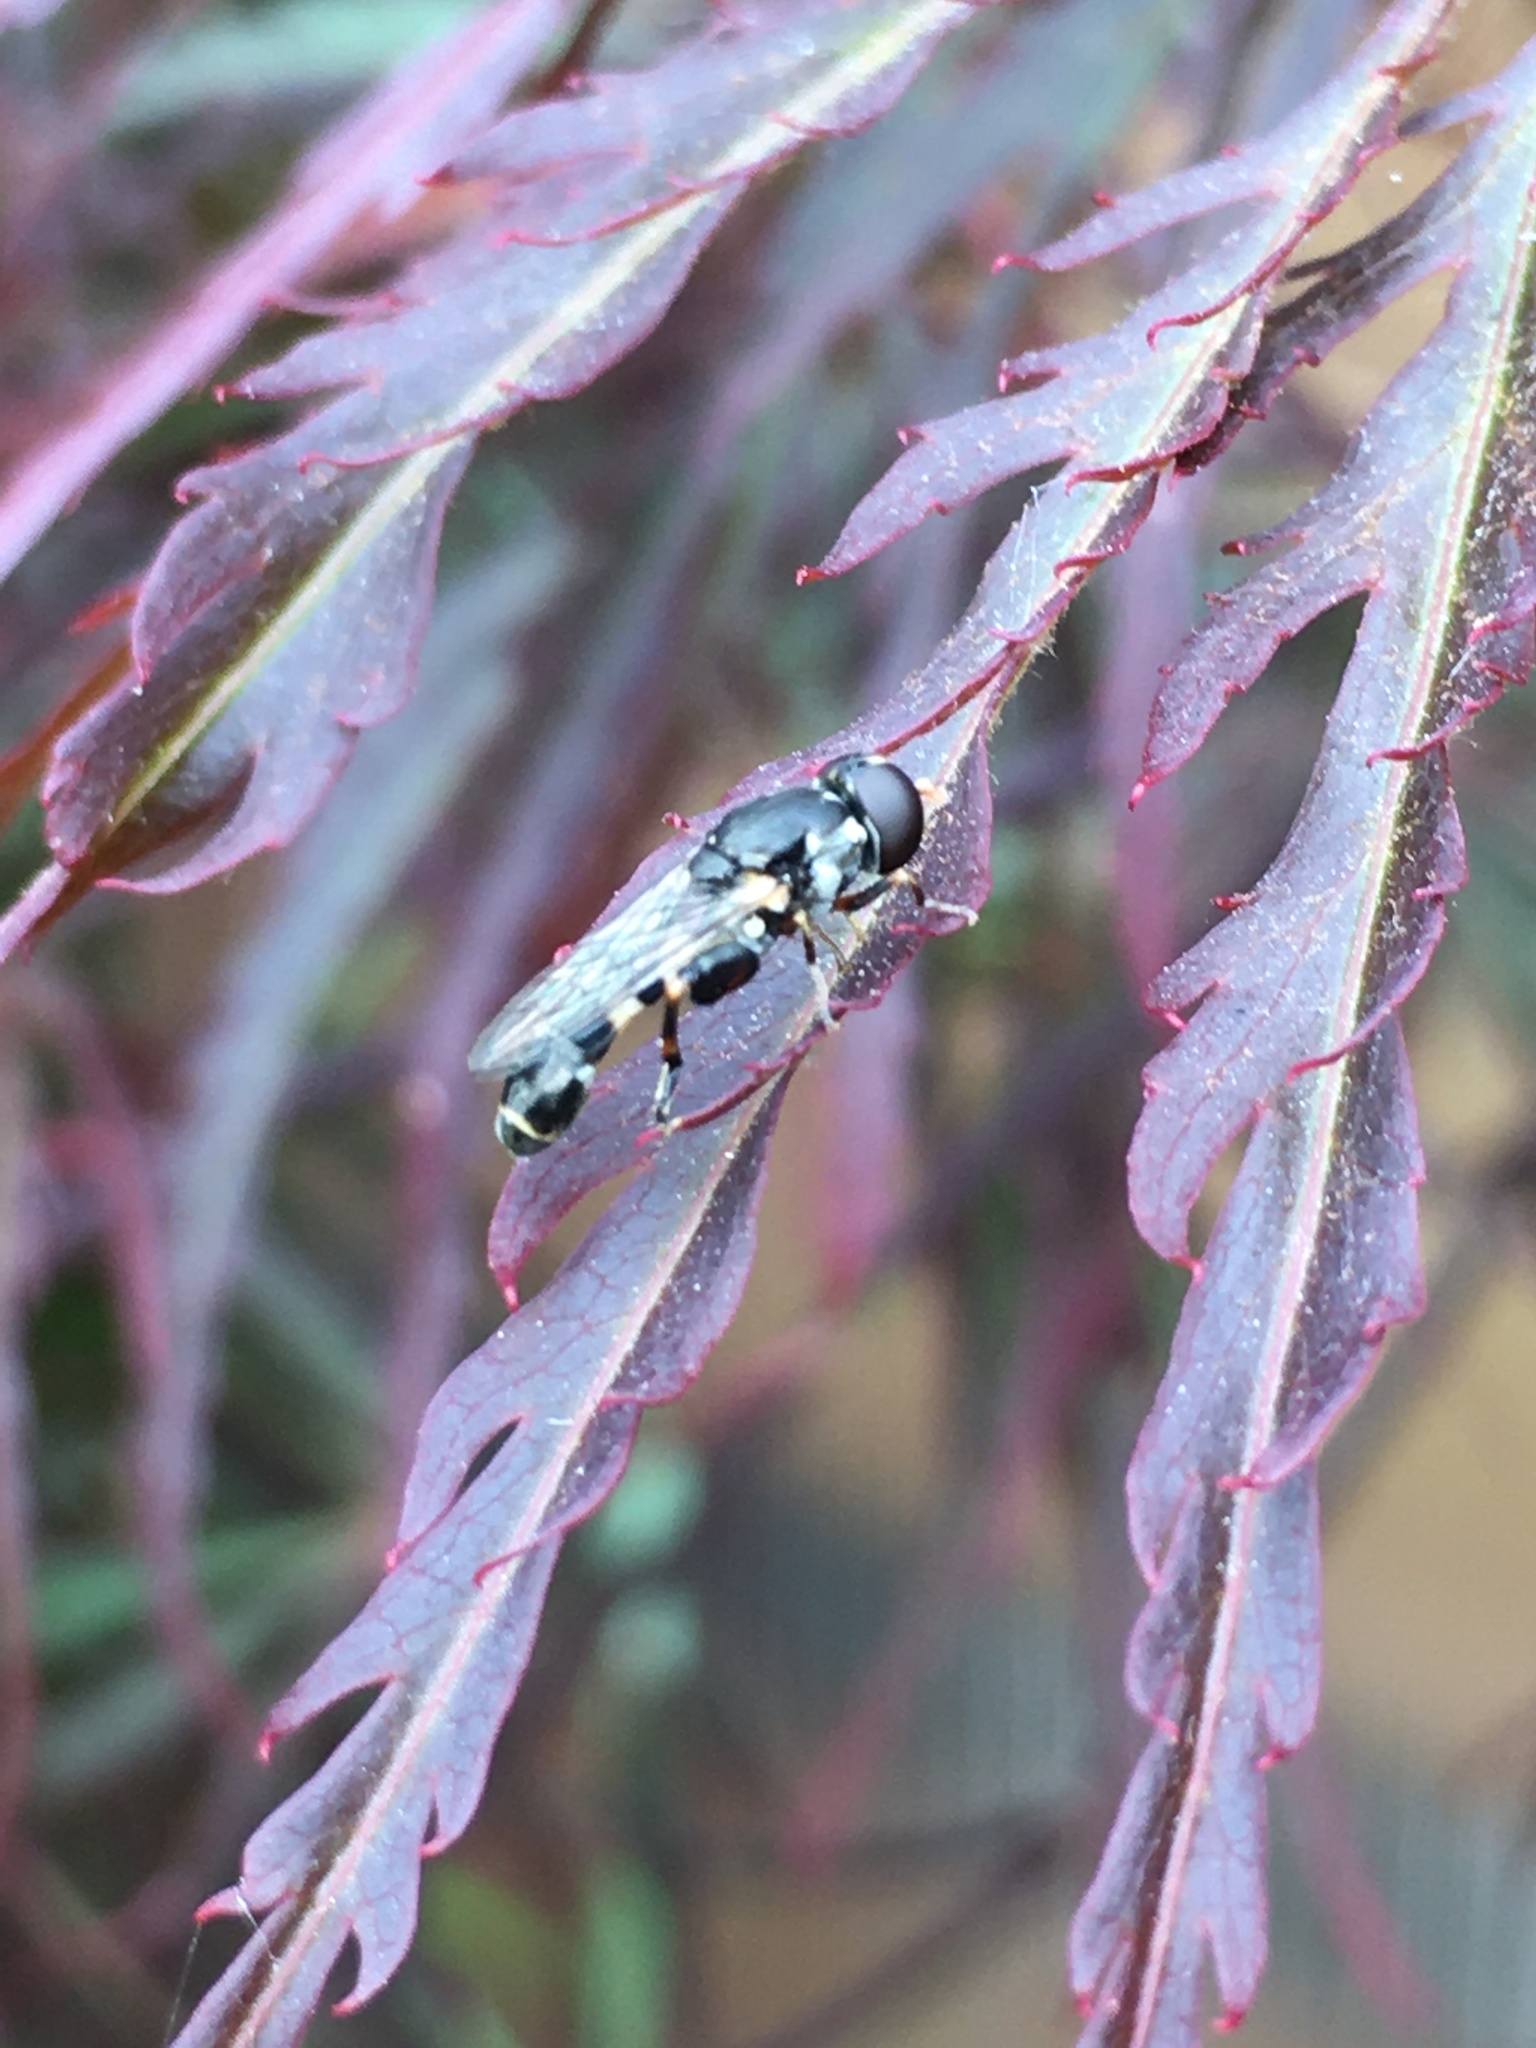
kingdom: Animalia
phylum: Arthropoda
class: Insecta
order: Diptera
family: Syrphidae
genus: Syritta
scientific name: Syritta pipiens
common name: Hover fly
